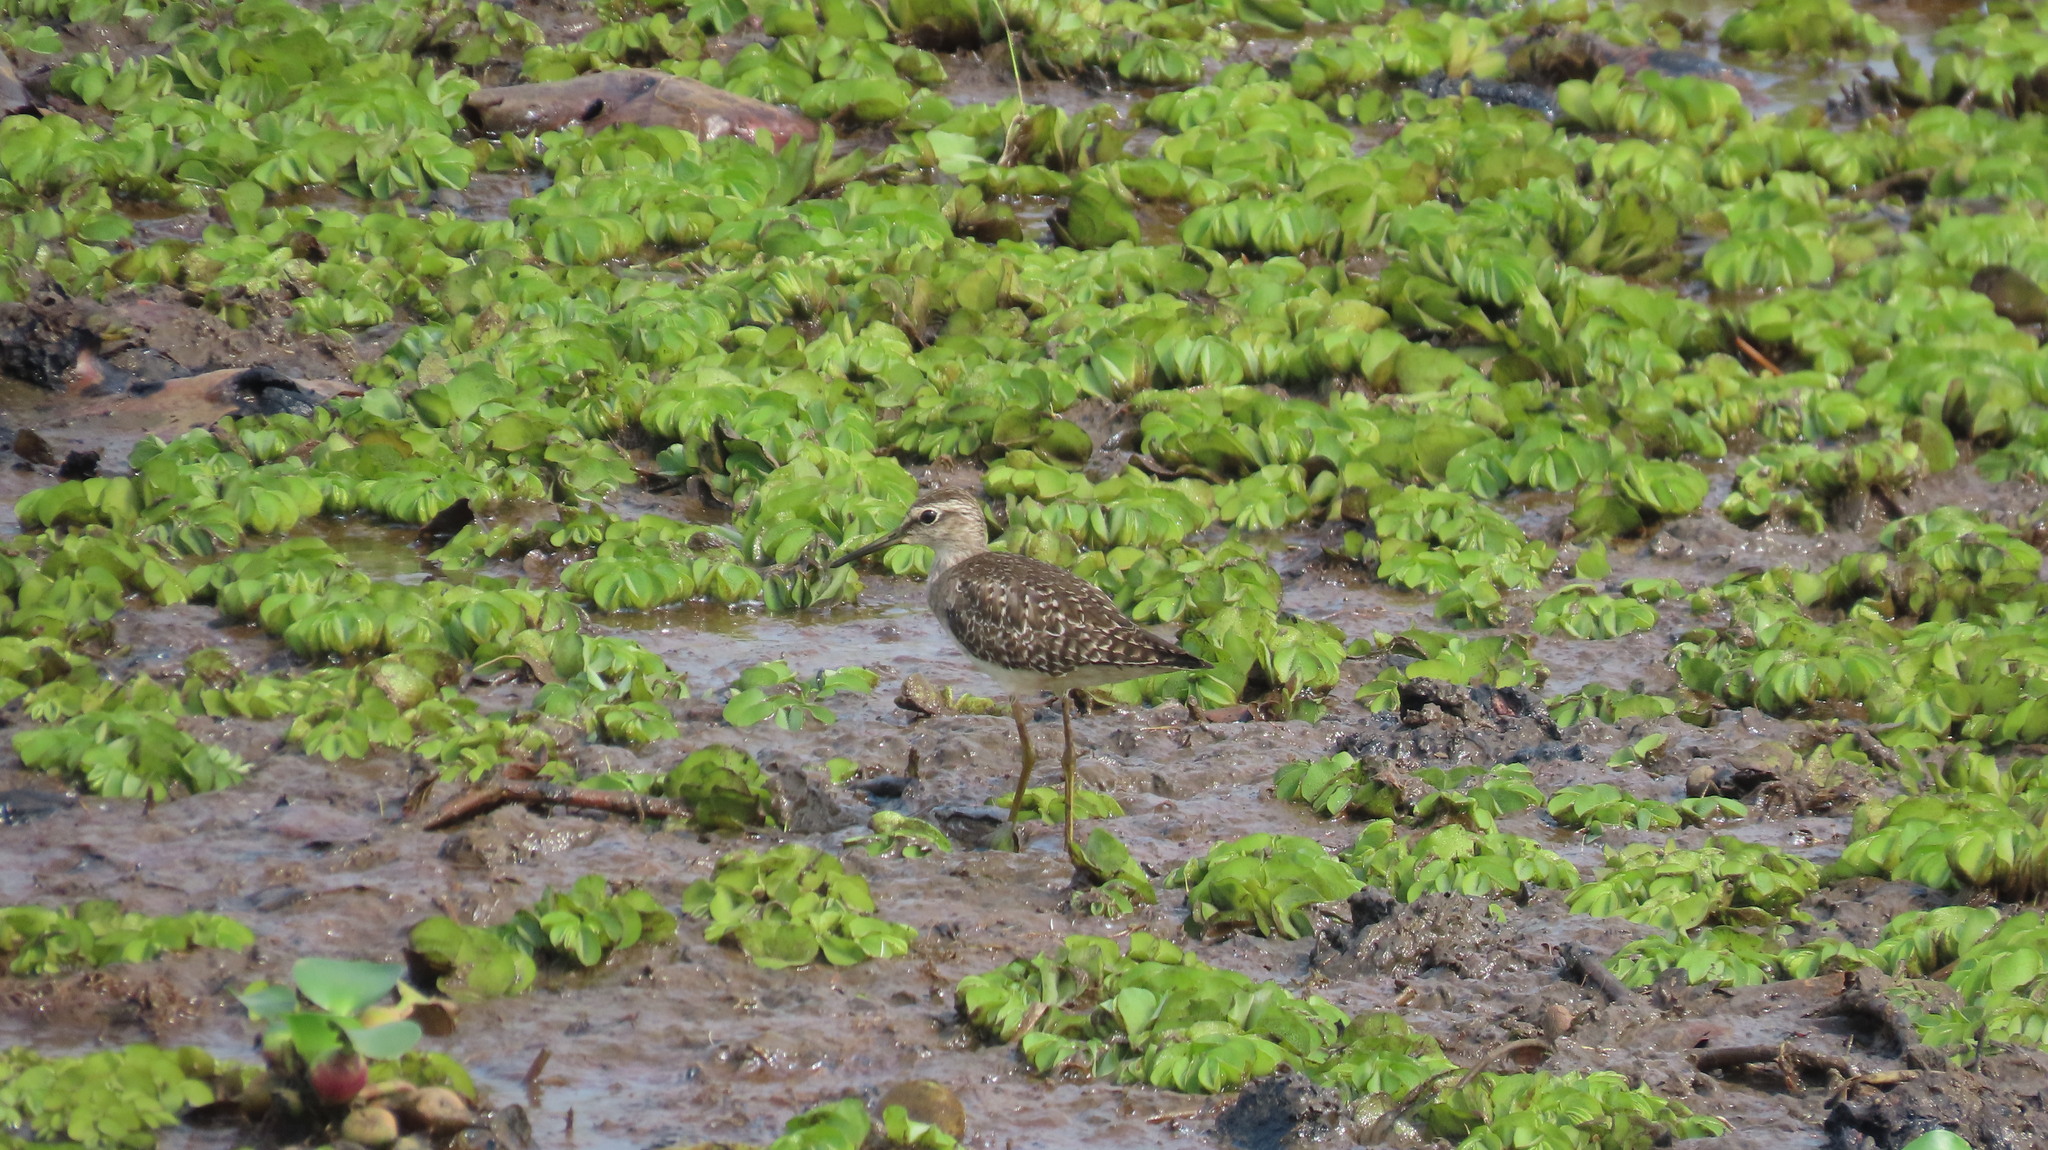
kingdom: Animalia
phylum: Chordata
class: Aves
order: Charadriiformes
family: Scolopacidae
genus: Tringa
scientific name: Tringa glareola
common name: Wood sandpiper
